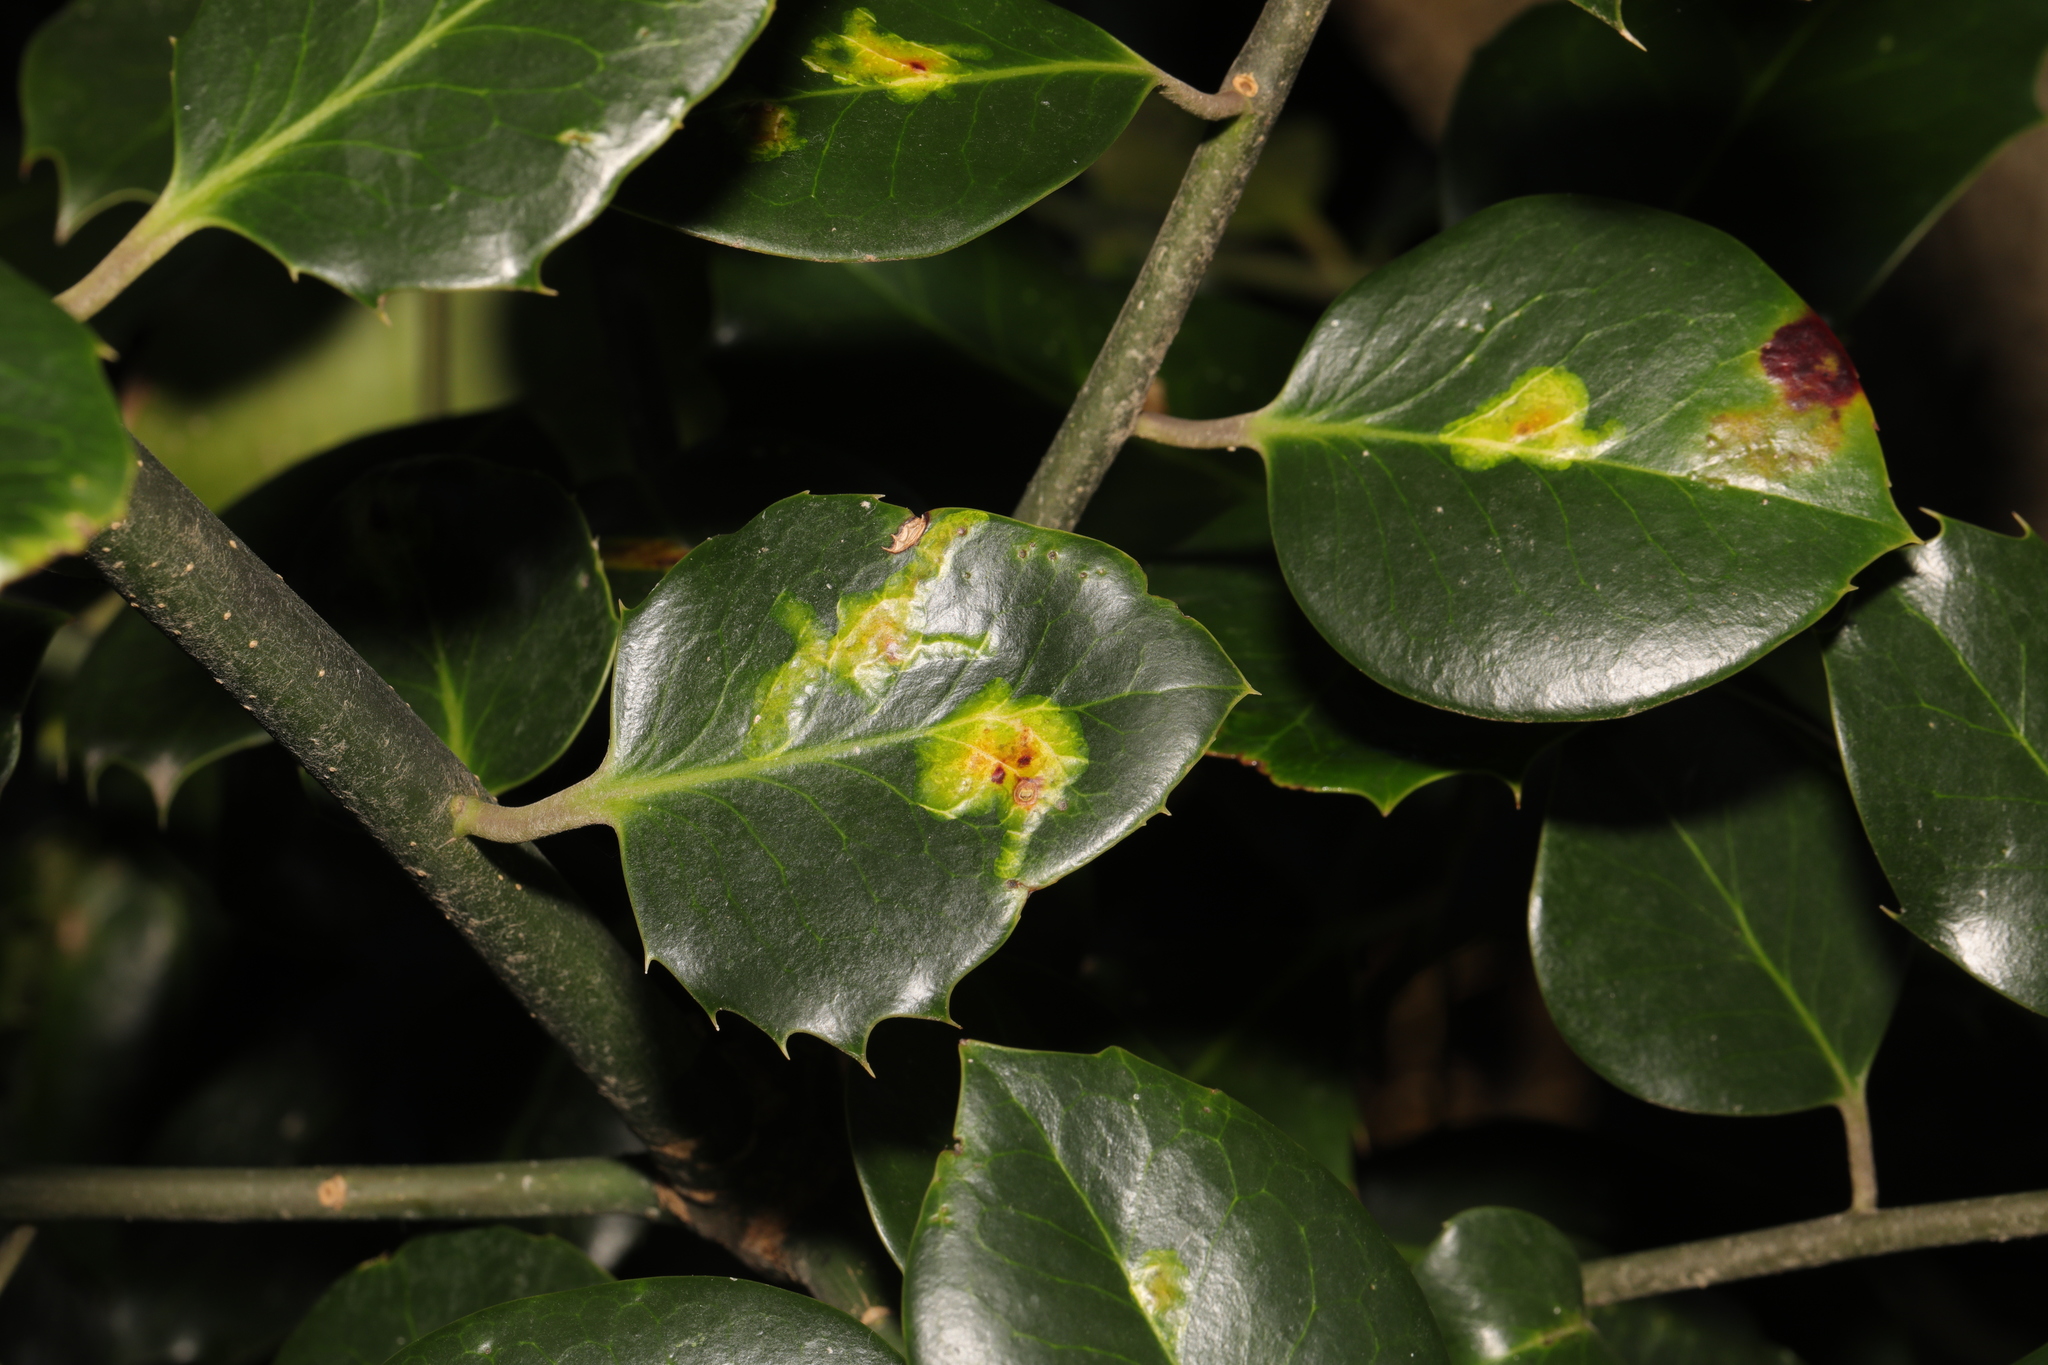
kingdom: Plantae
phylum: Tracheophyta
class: Magnoliopsida
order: Aquifoliales
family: Aquifoliaceae
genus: Ilex
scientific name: Ilex aquifolium
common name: English holly
